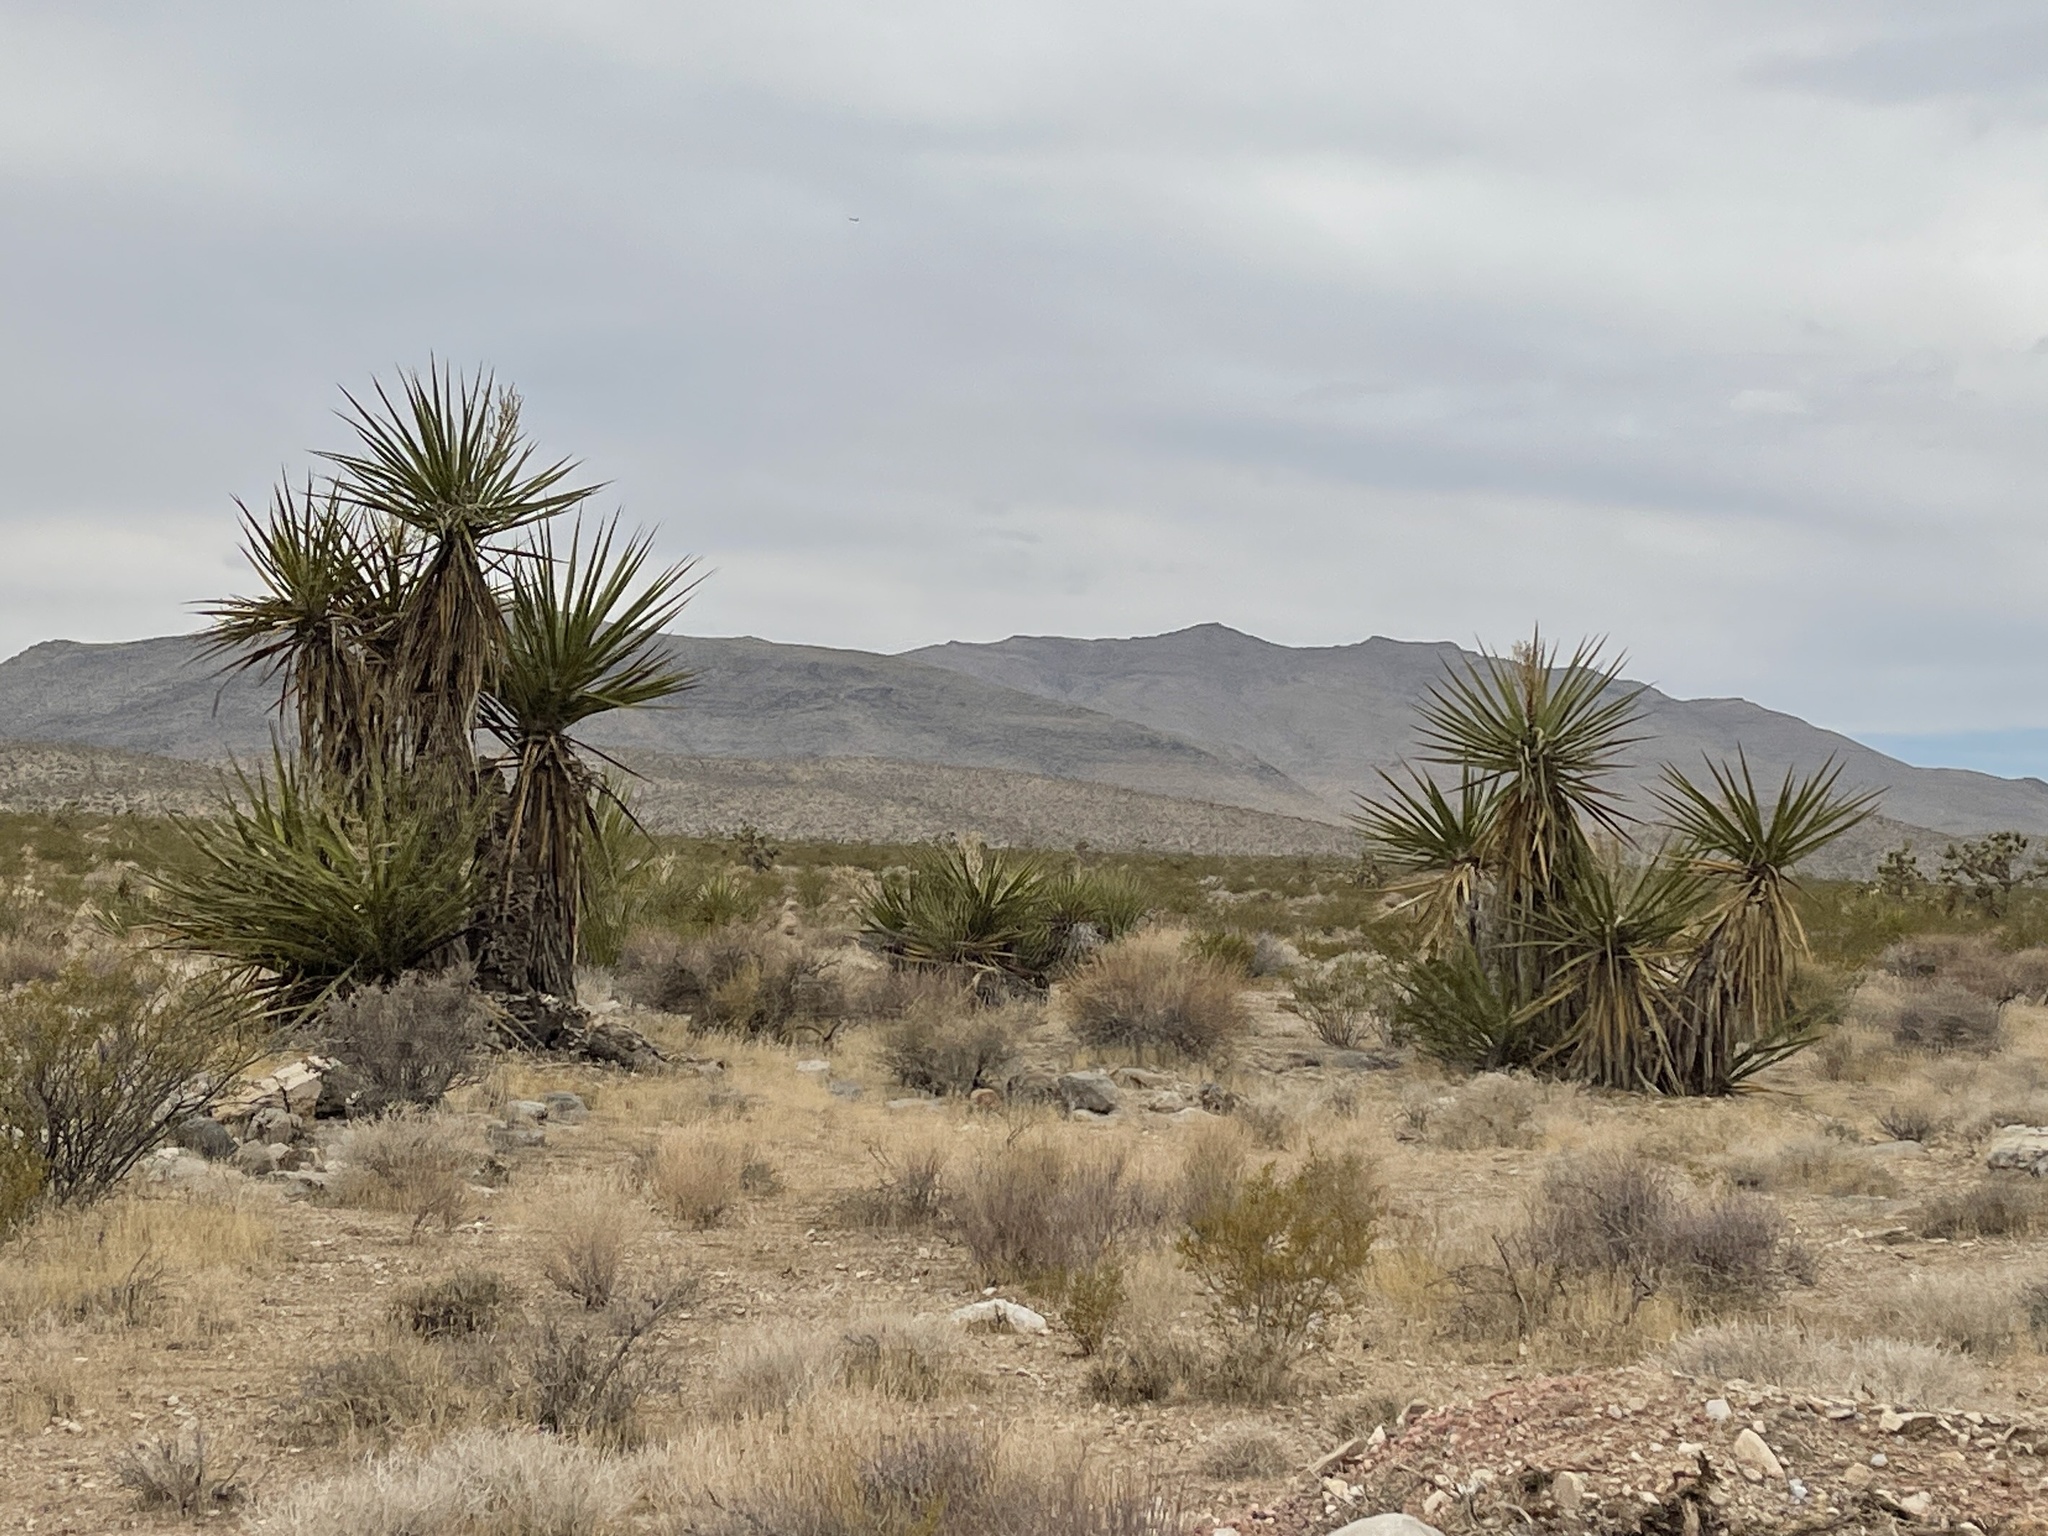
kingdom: Plantae
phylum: Tracheophyta
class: Liliopsida
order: Asparagales
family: Asparagaceae
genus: Yucca
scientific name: Yucca schidigera
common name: Mojave yucca
